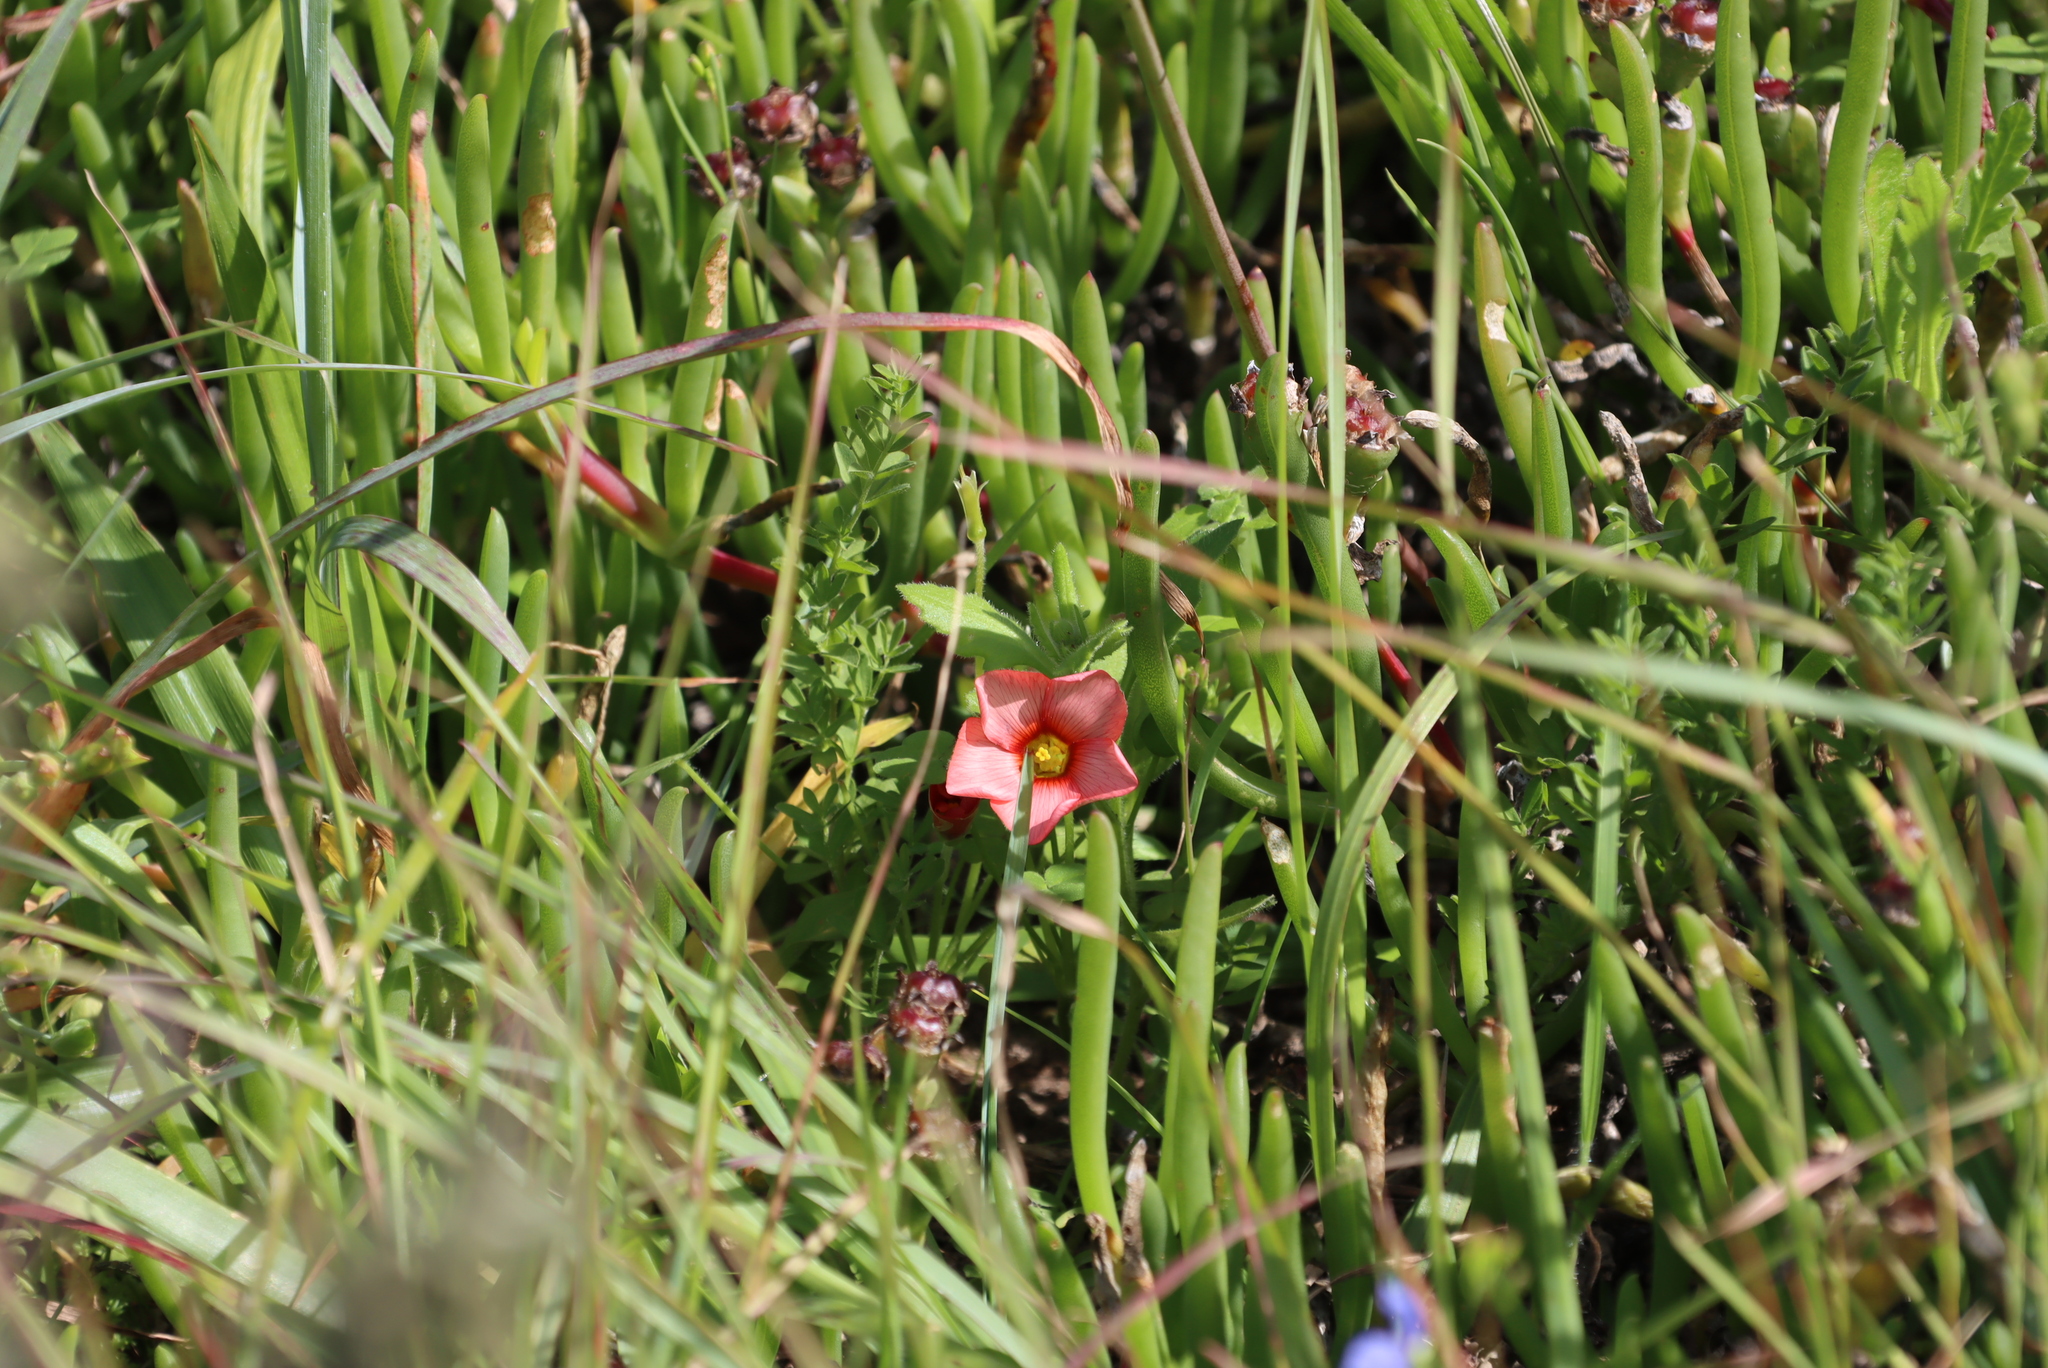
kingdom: Plantae
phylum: Tracheophyta
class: Magnoliopsida
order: Oxalidales
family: Oxalidaceae
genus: Oxalis
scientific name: Oxalis obtusa
